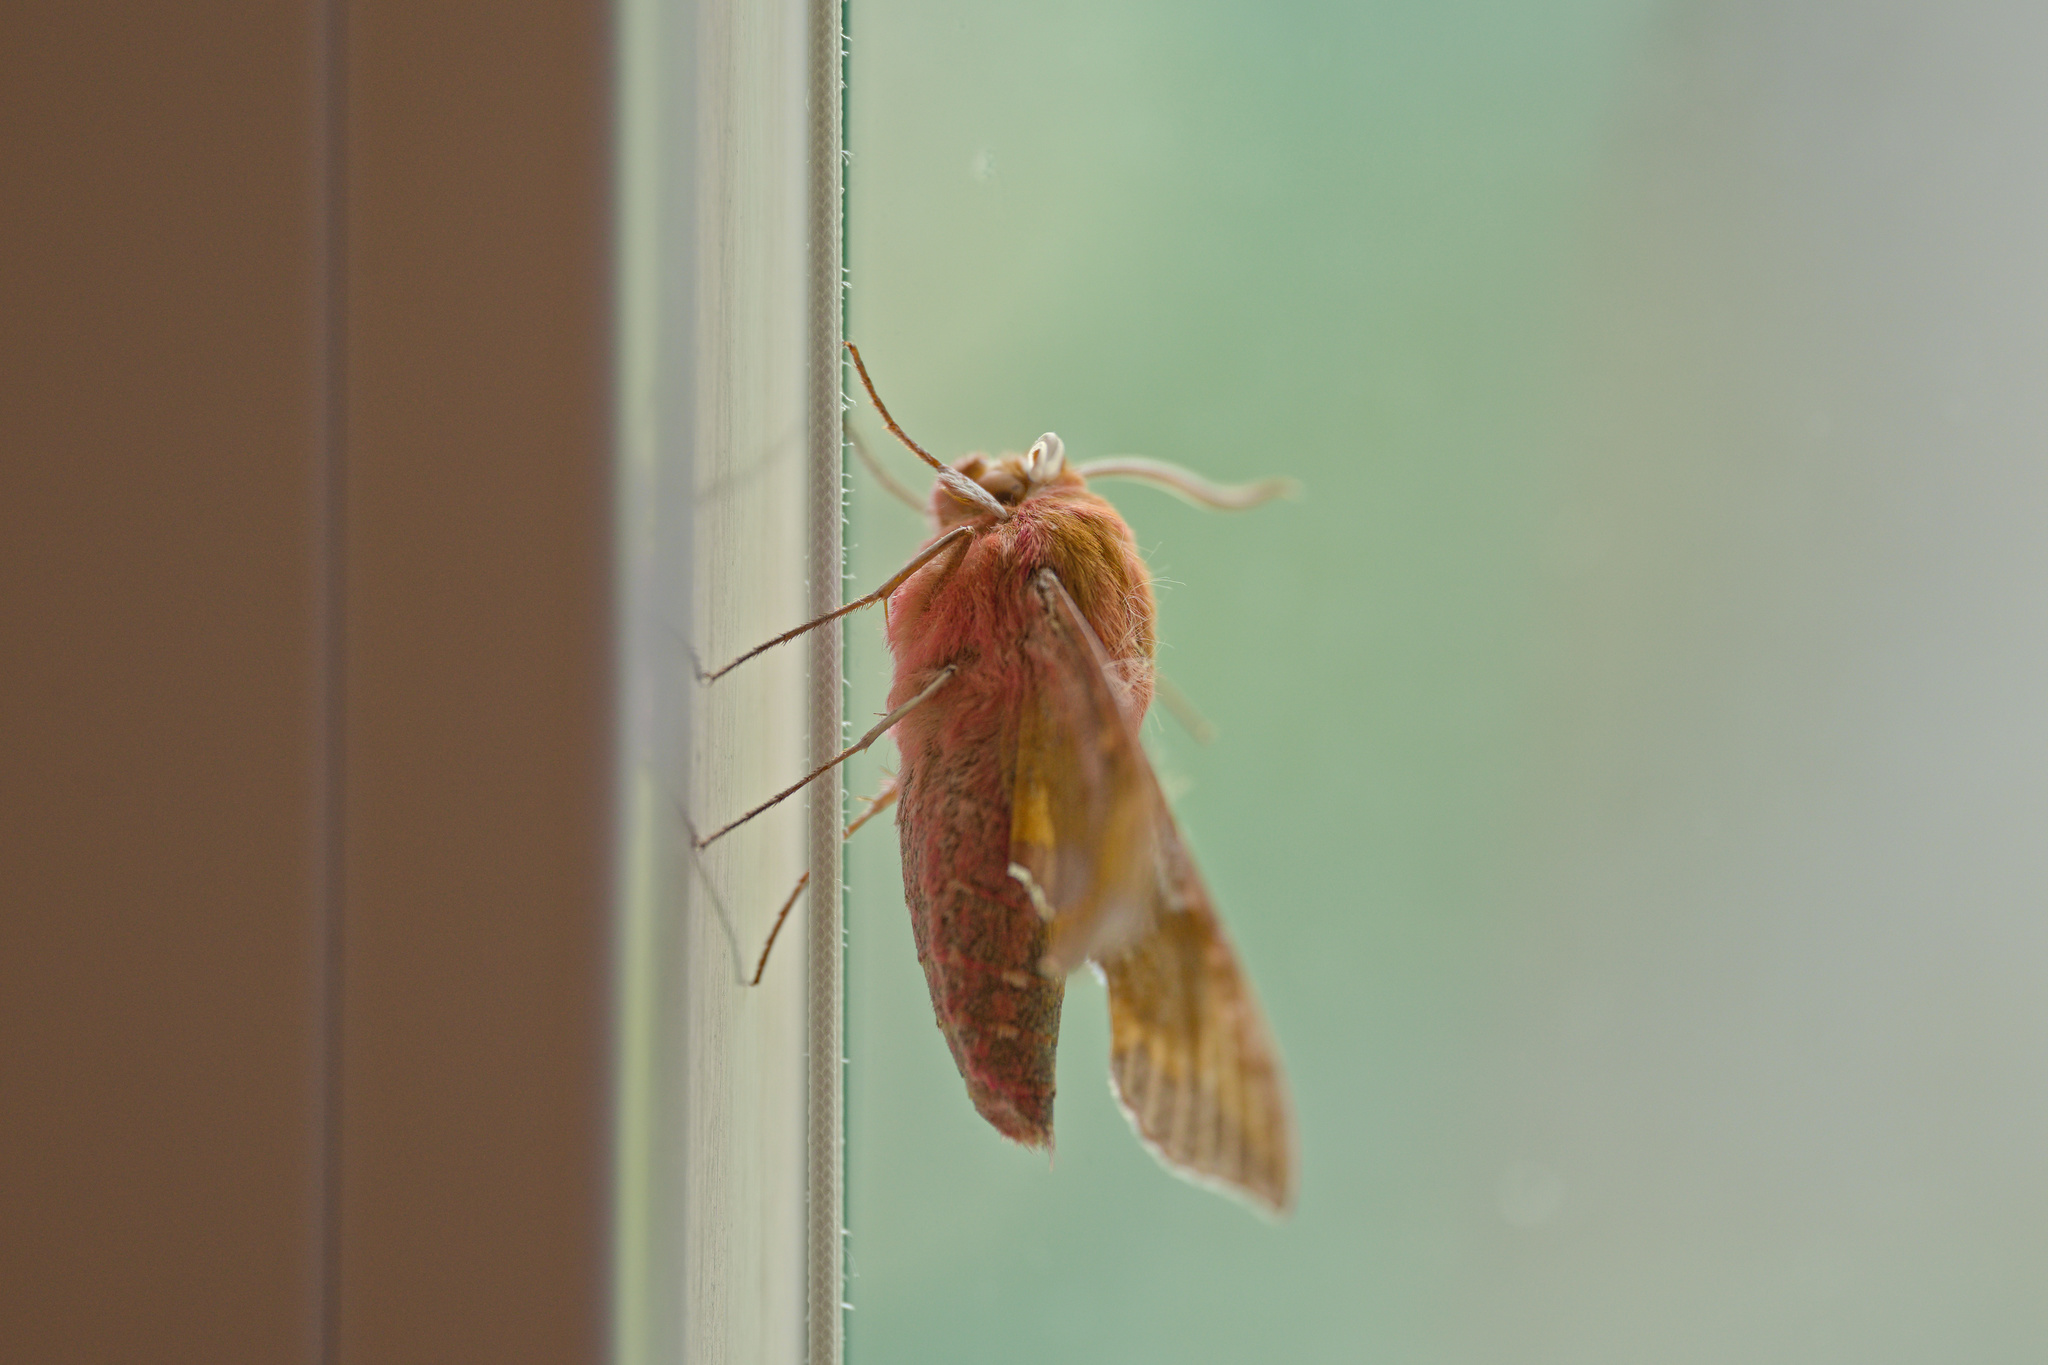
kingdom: Animalia
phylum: Arthropoda
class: Insecta
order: Lepidoptera
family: Sphingidae
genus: Deilephila
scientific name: Deilephila porcellus
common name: Small elephant hawk-moth
